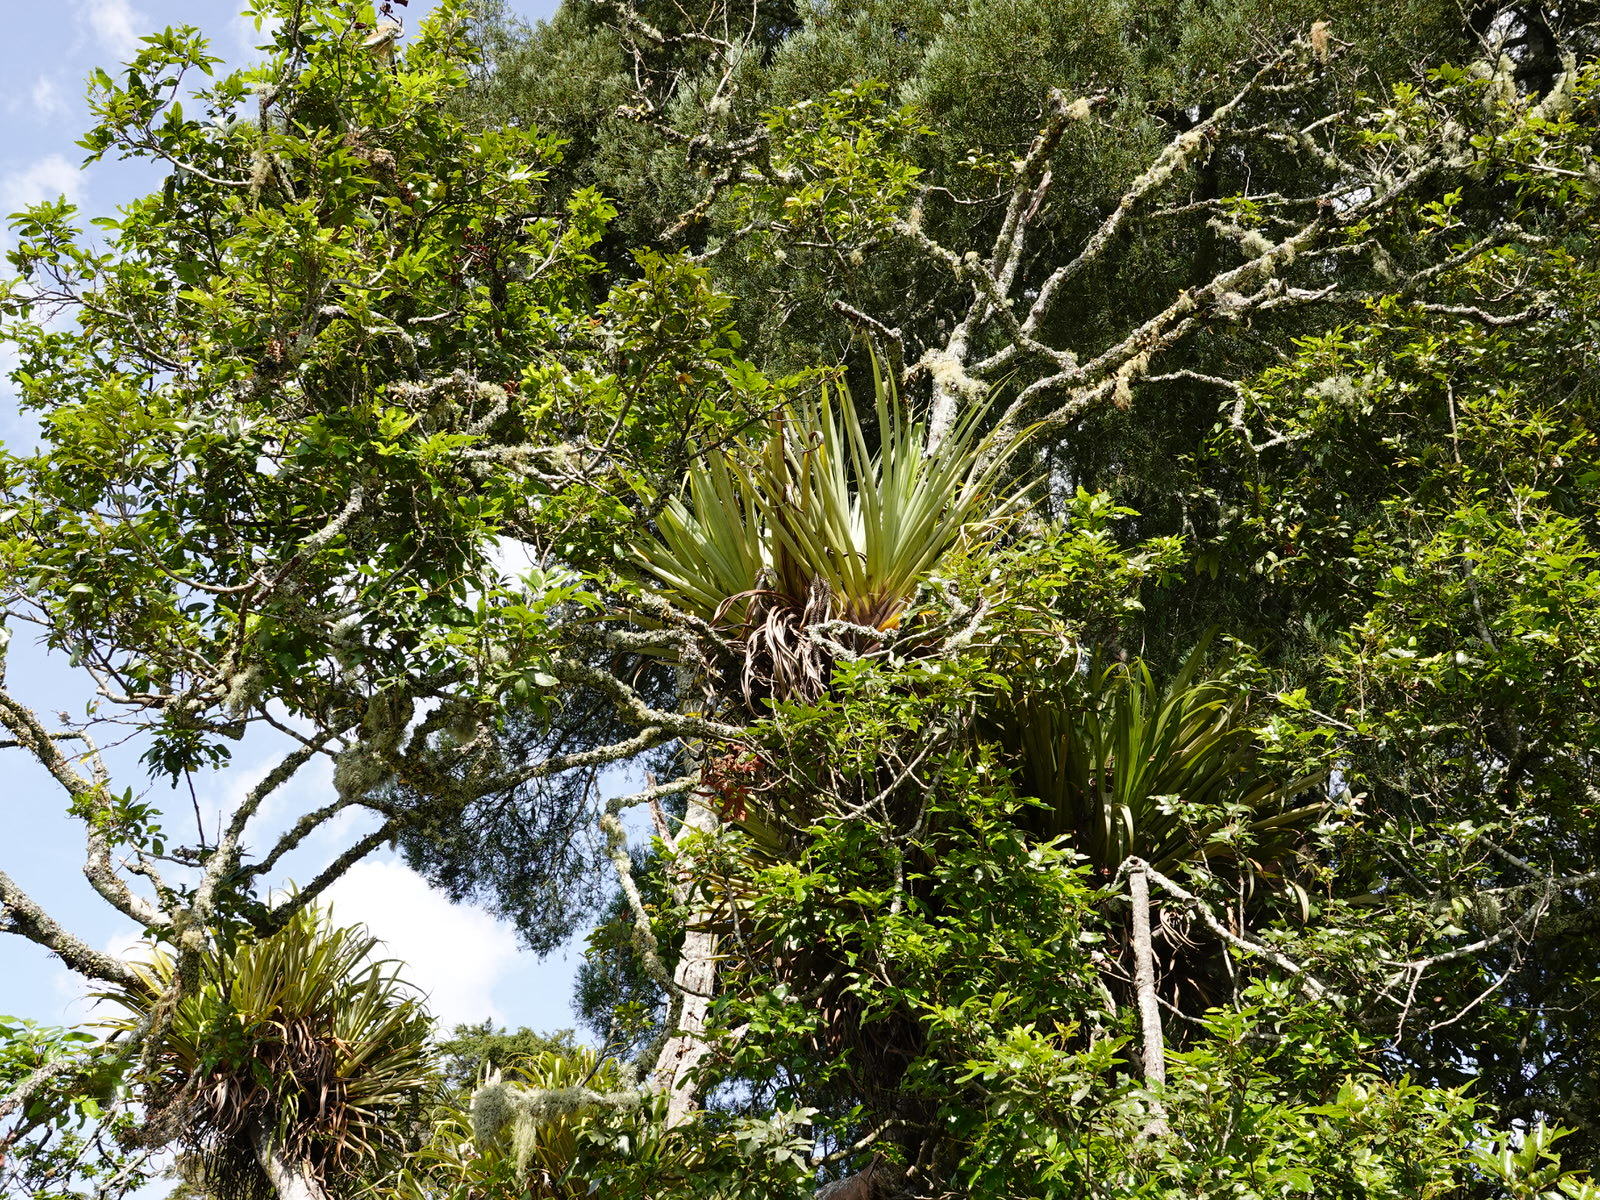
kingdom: Plantae
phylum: Tracheophyta
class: Liliopsida
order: Asparagales
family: Asteliaceae
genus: Astelia
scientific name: Astelia hastata
